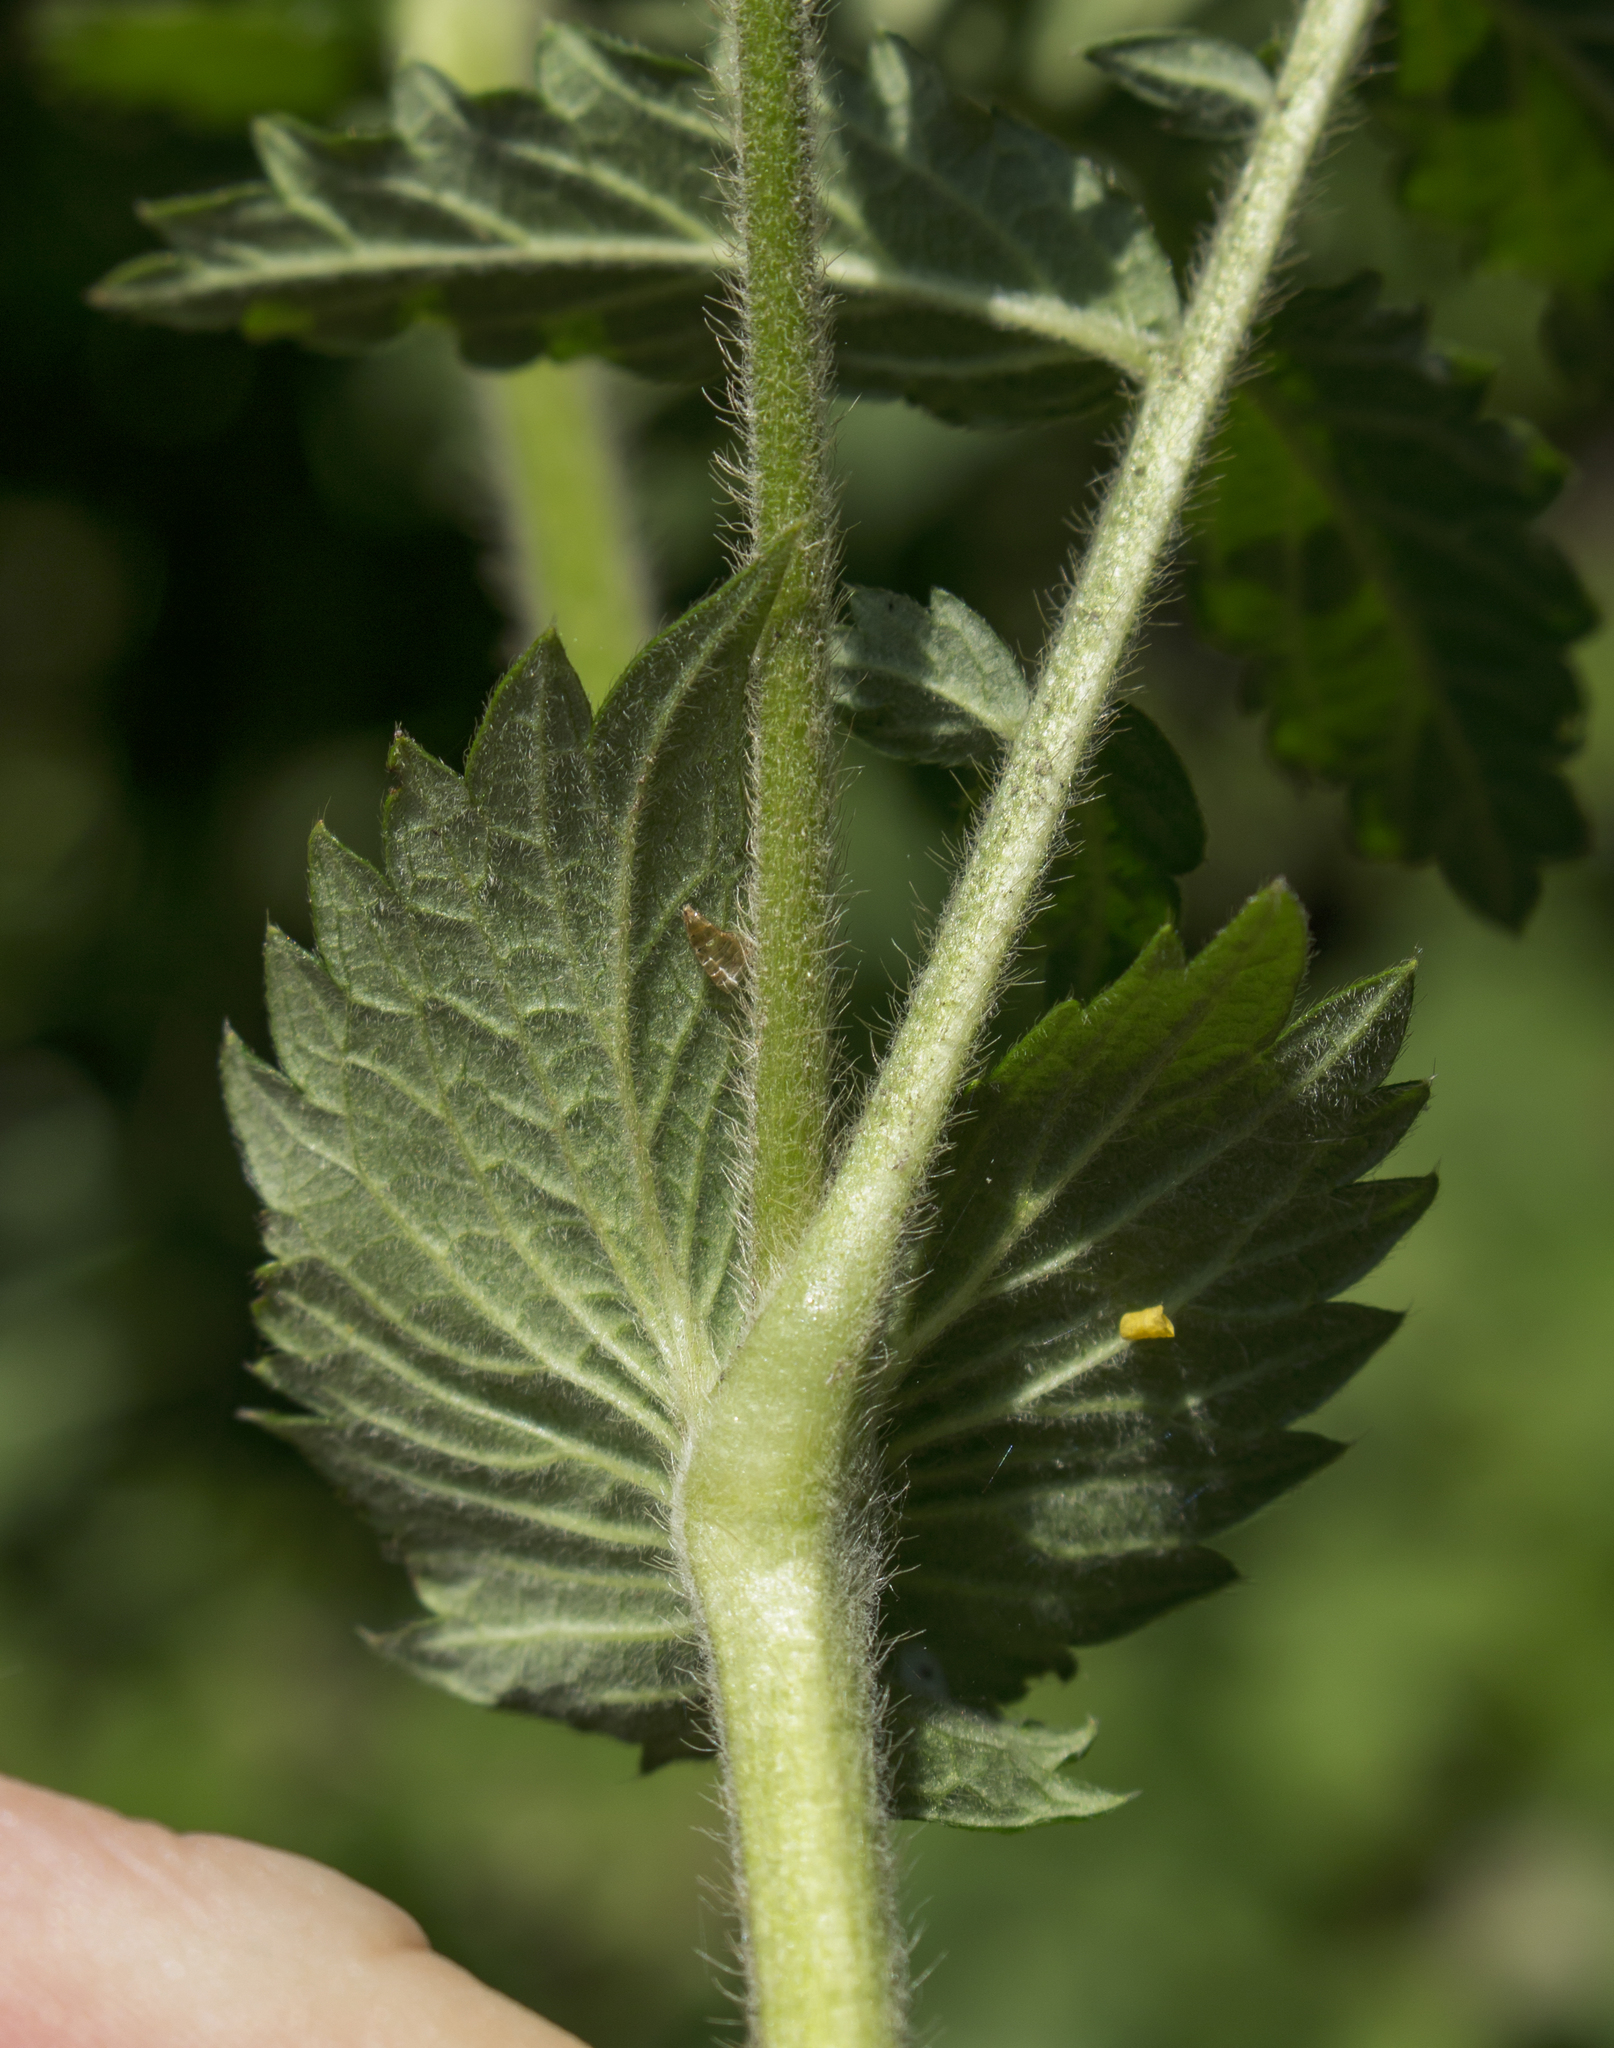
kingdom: Plantae
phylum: Tracheophyta
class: Magnoliopsida
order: Rosales
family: Rosaceae
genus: Agrimonia
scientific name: Agrimonia pubescens
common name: Downy agrimony
